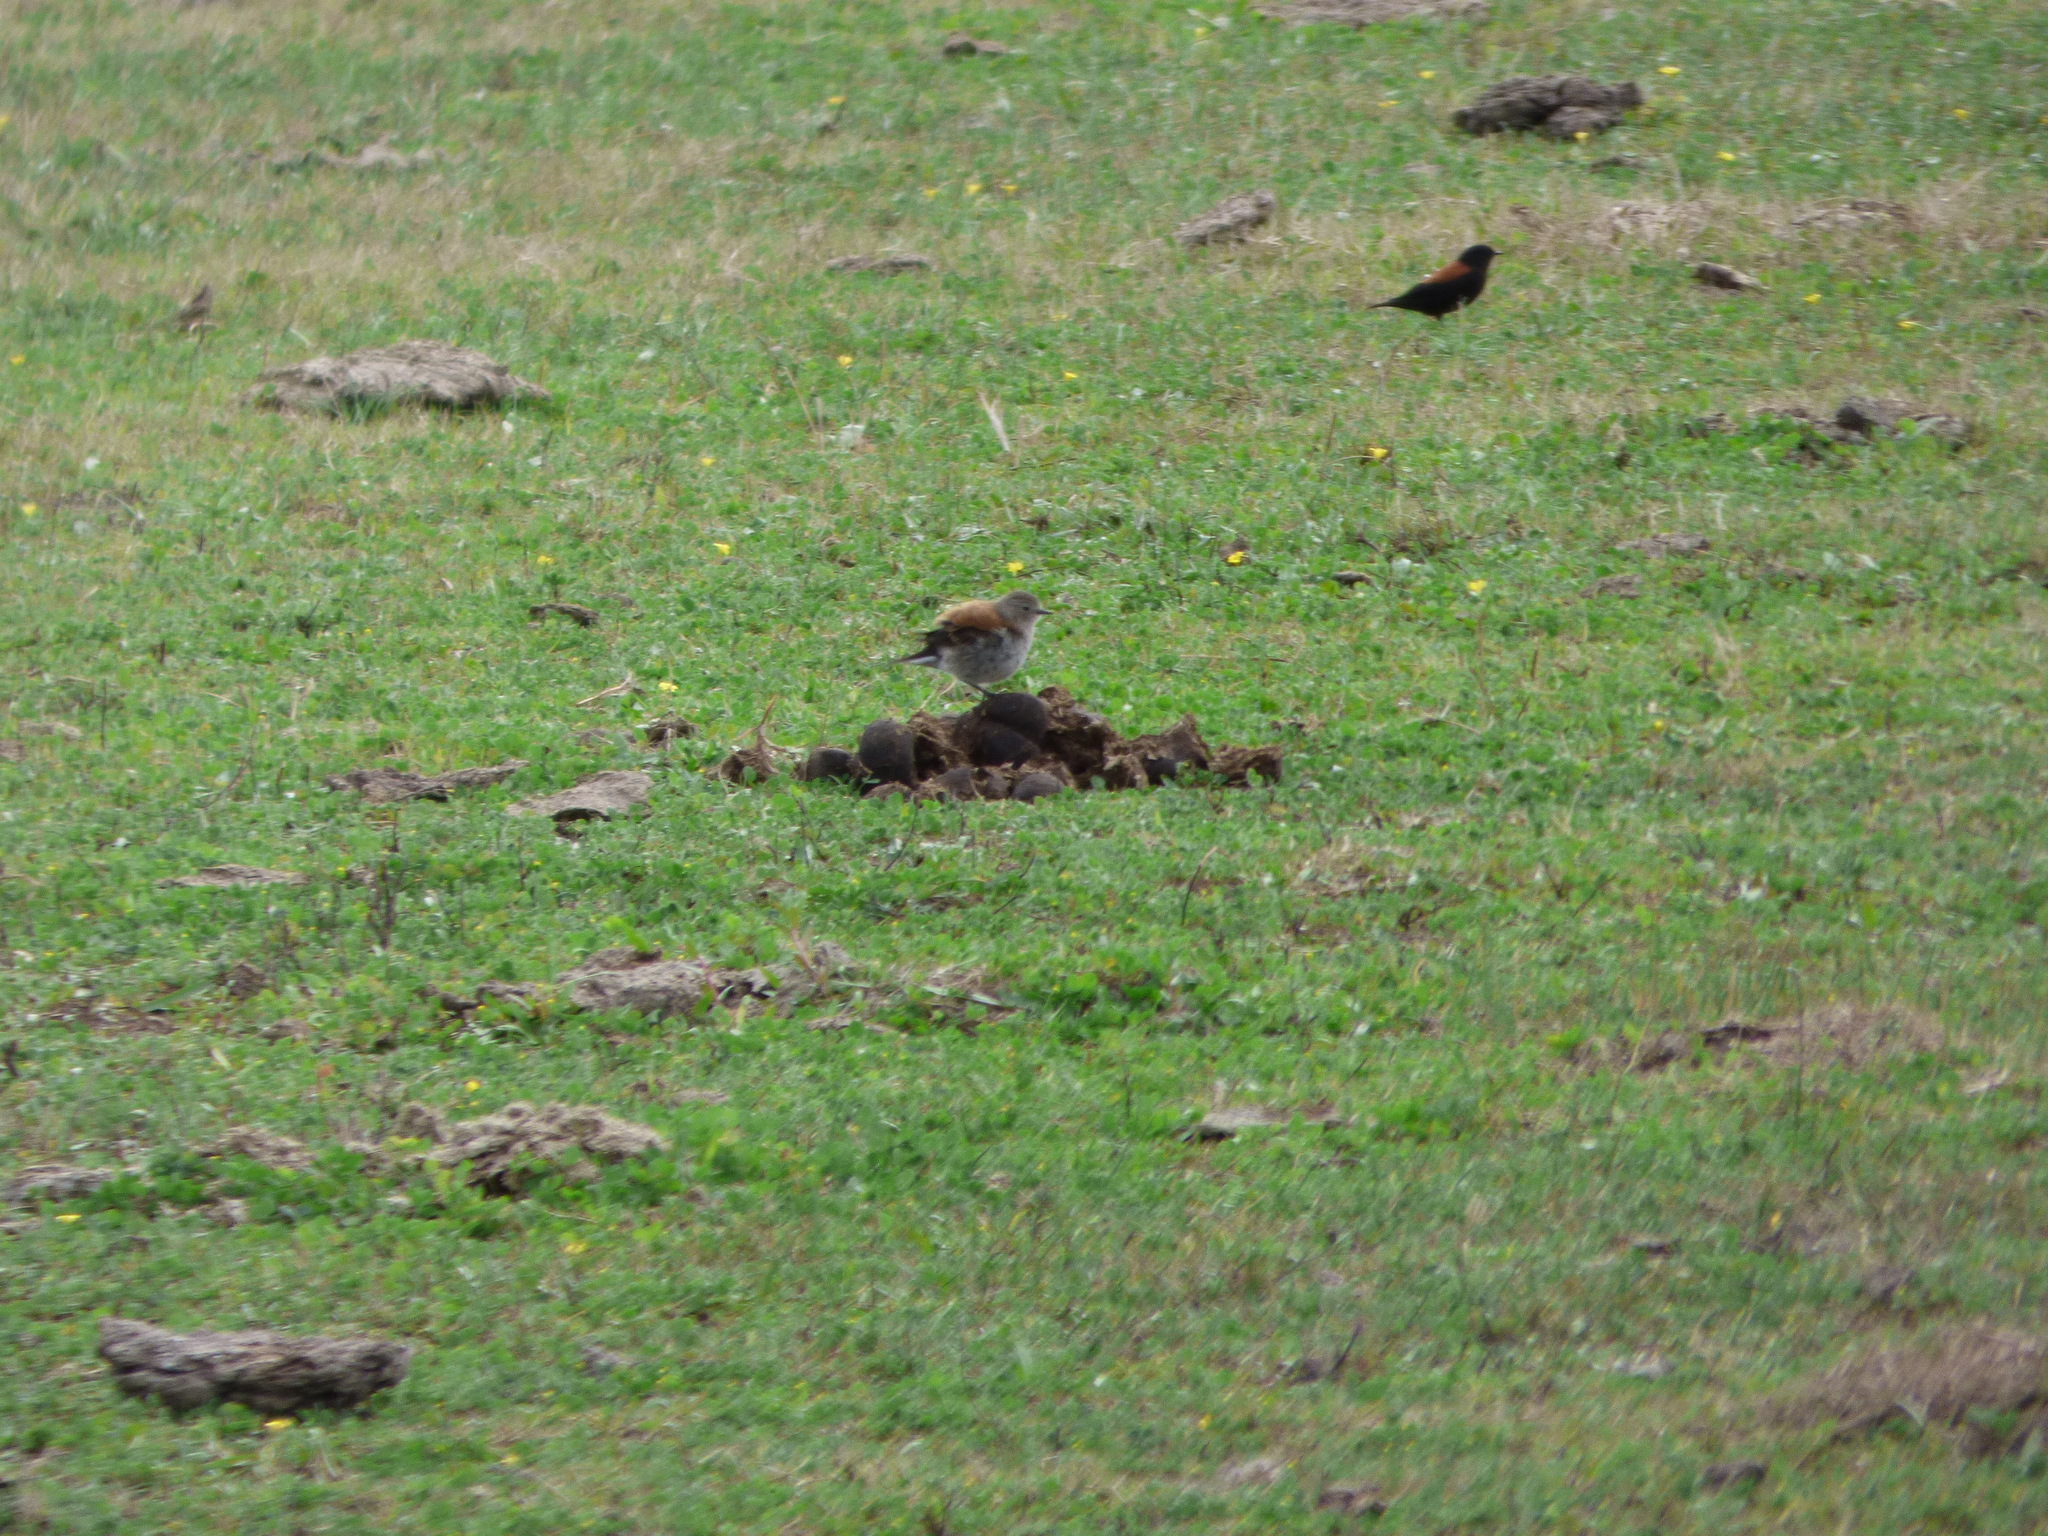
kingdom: Animalia
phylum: Chordata
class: Aves
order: Passeriformes
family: Tyrannidae
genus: Lessonia
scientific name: Lessonia rufa
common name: Austral negrito
